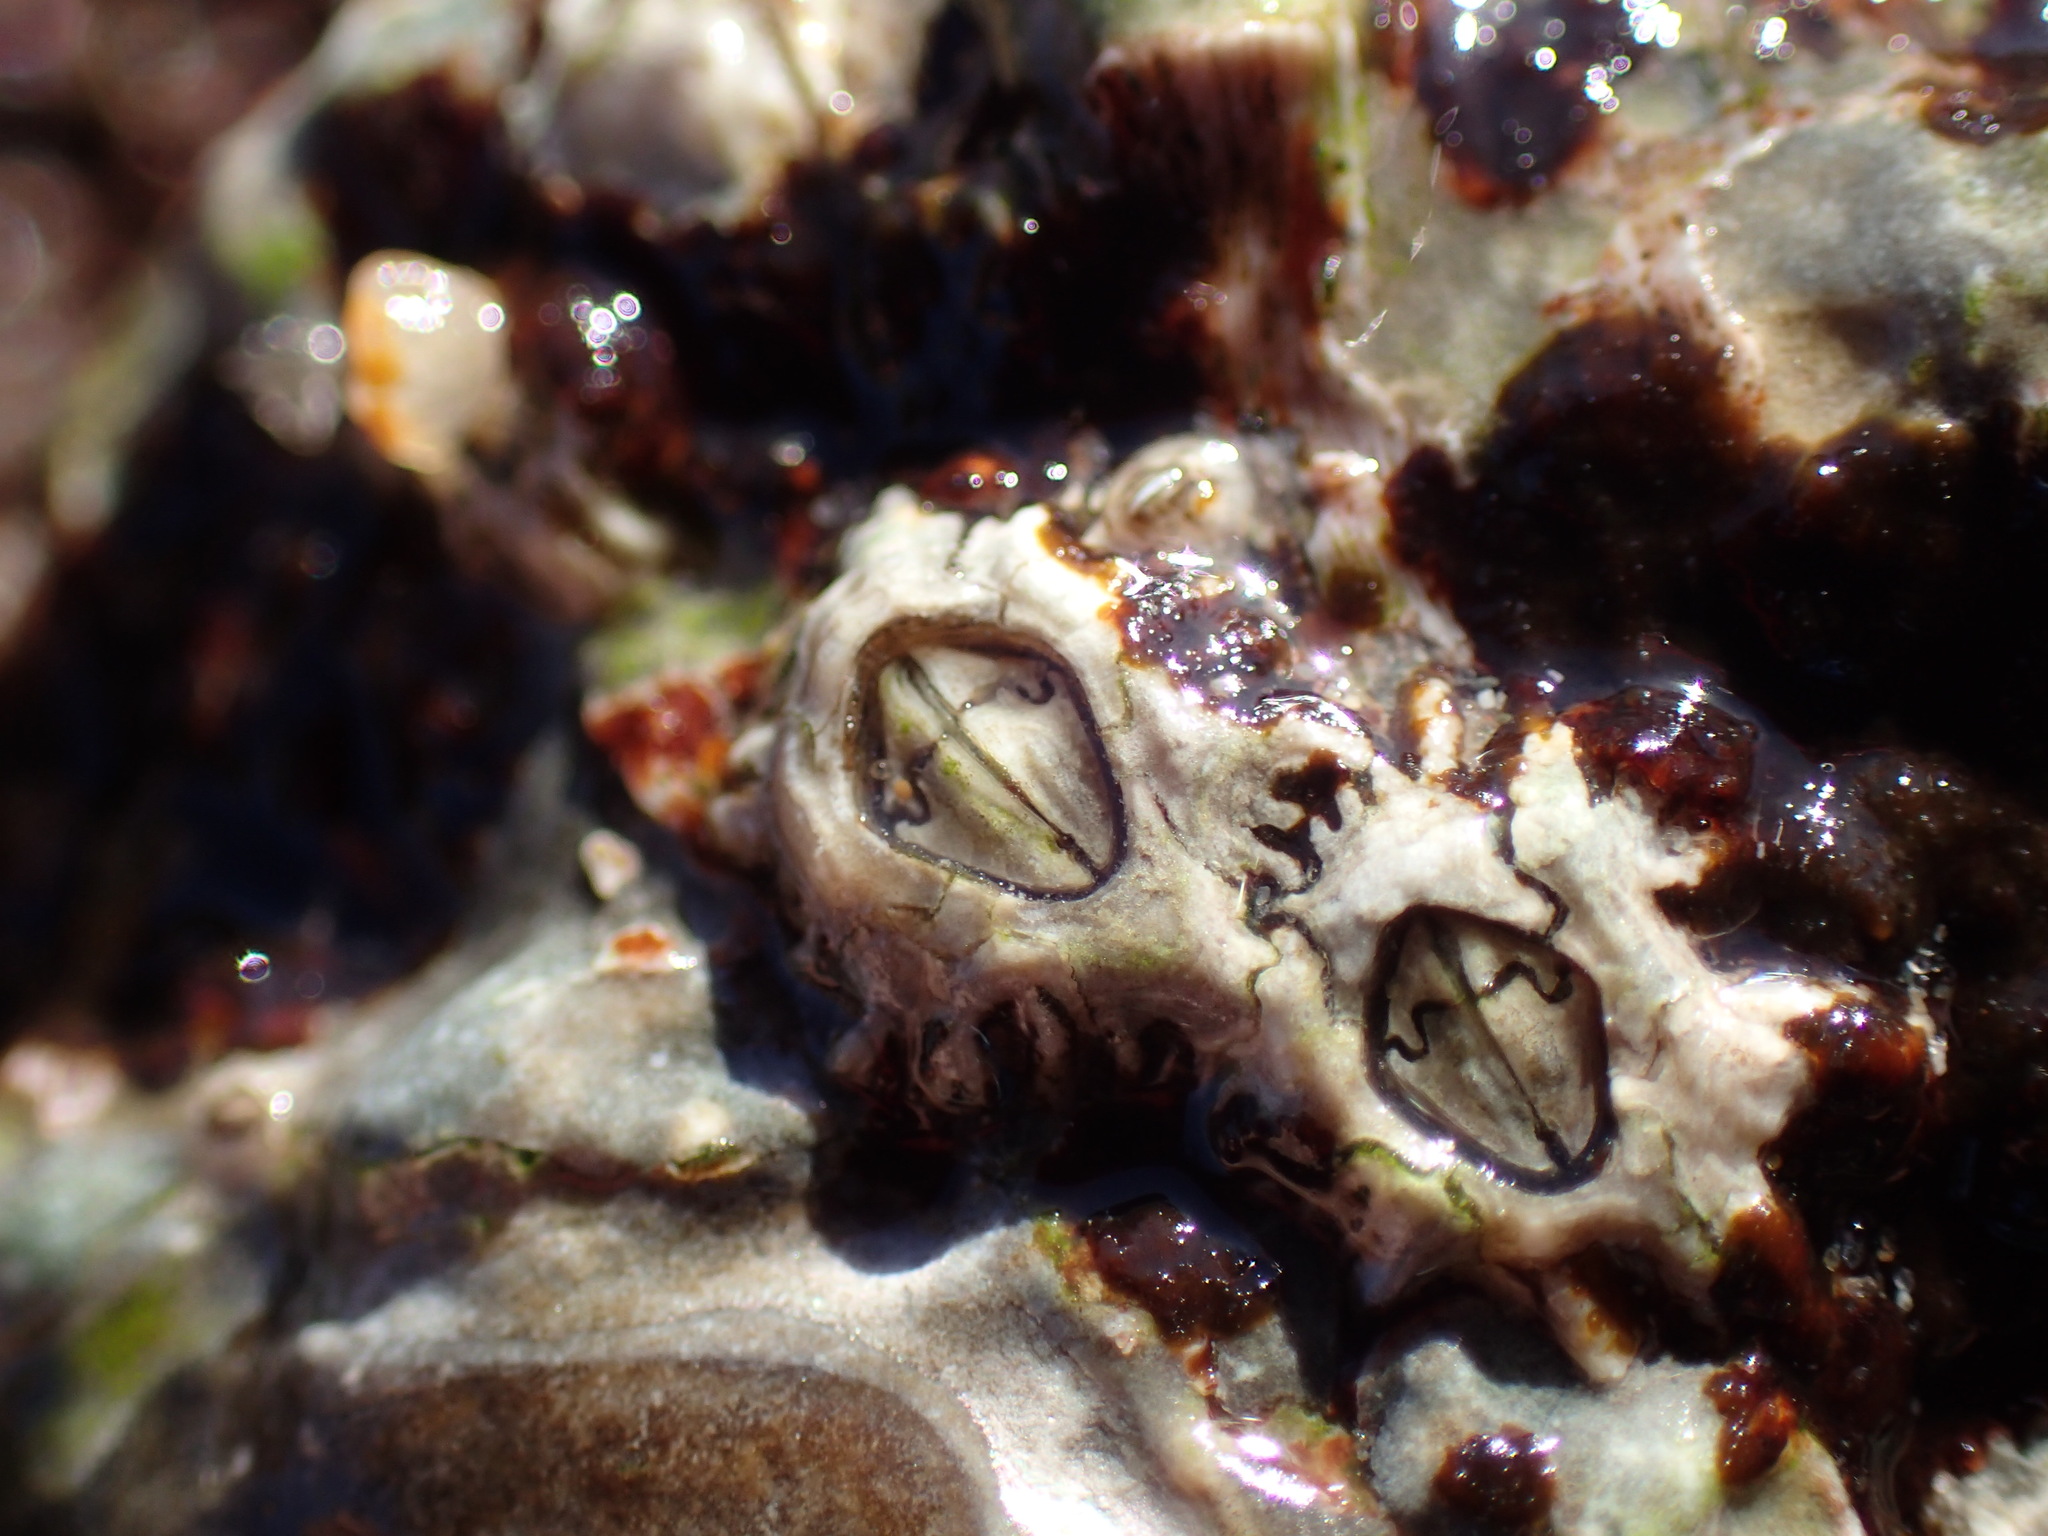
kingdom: Animalia
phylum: Arthropoda
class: Maxillopoda
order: Sessilia
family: Chthamalidae
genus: Chthamalus
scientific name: Chthamalus dentatus
